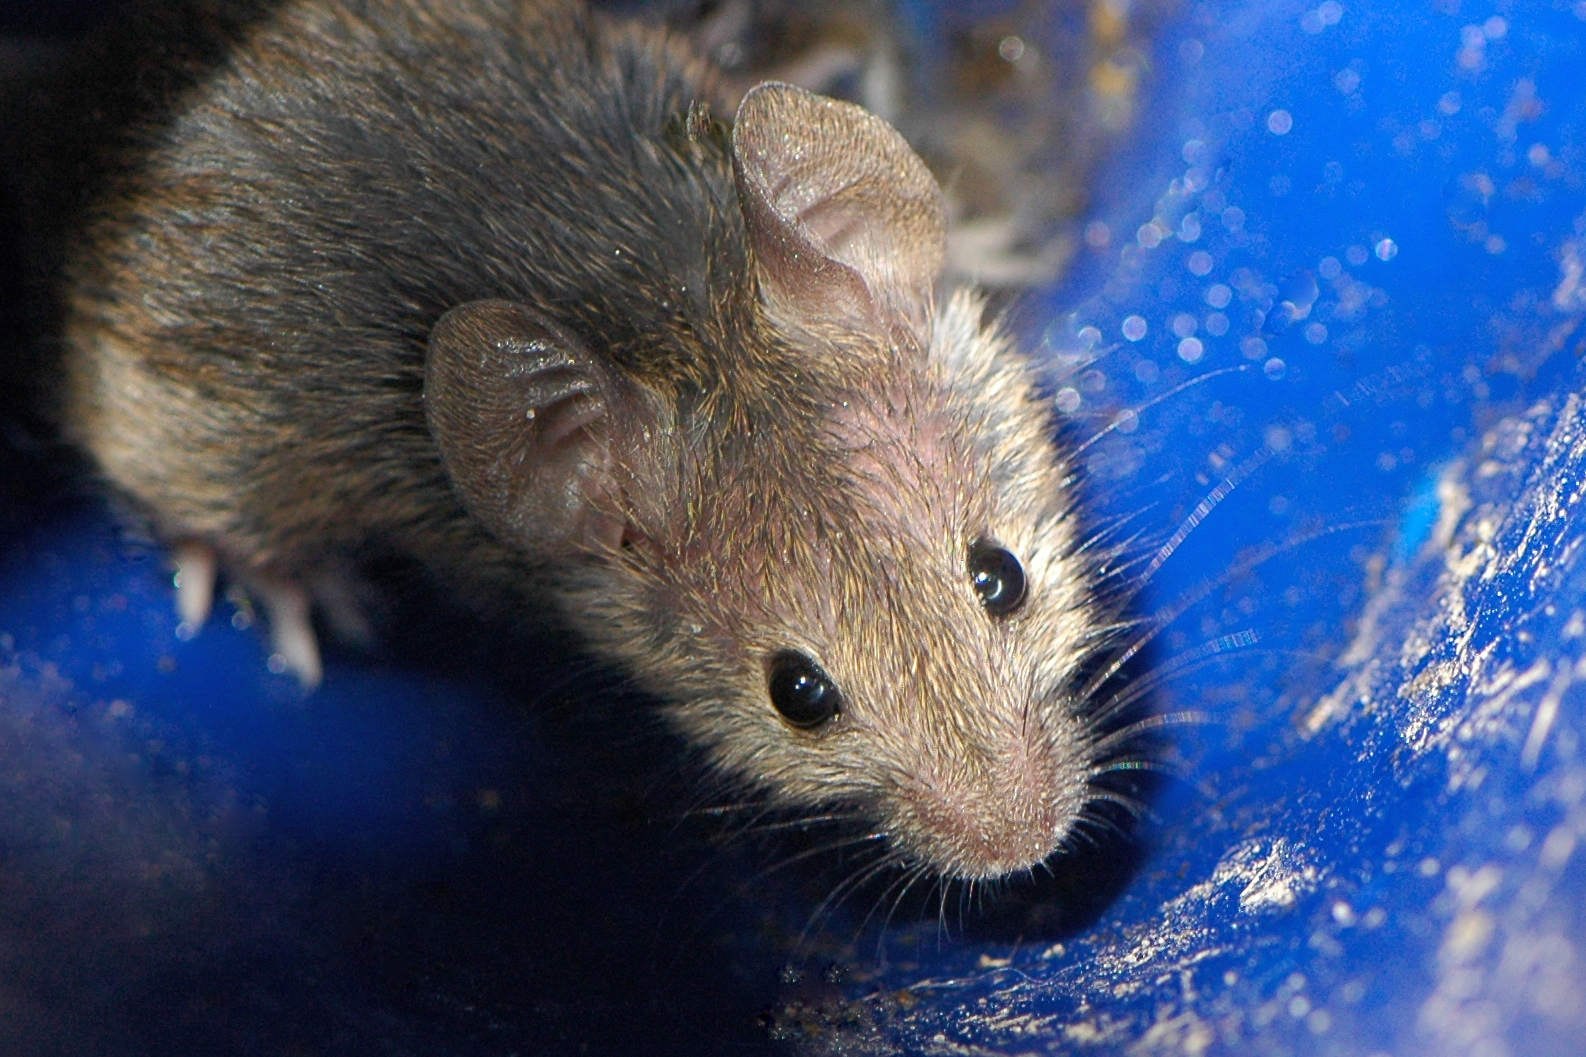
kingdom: Animalia
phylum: Chordata
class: Mammalia
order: Rodentia
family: Muridae
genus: Mus
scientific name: Mus musculus
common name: House mouse
